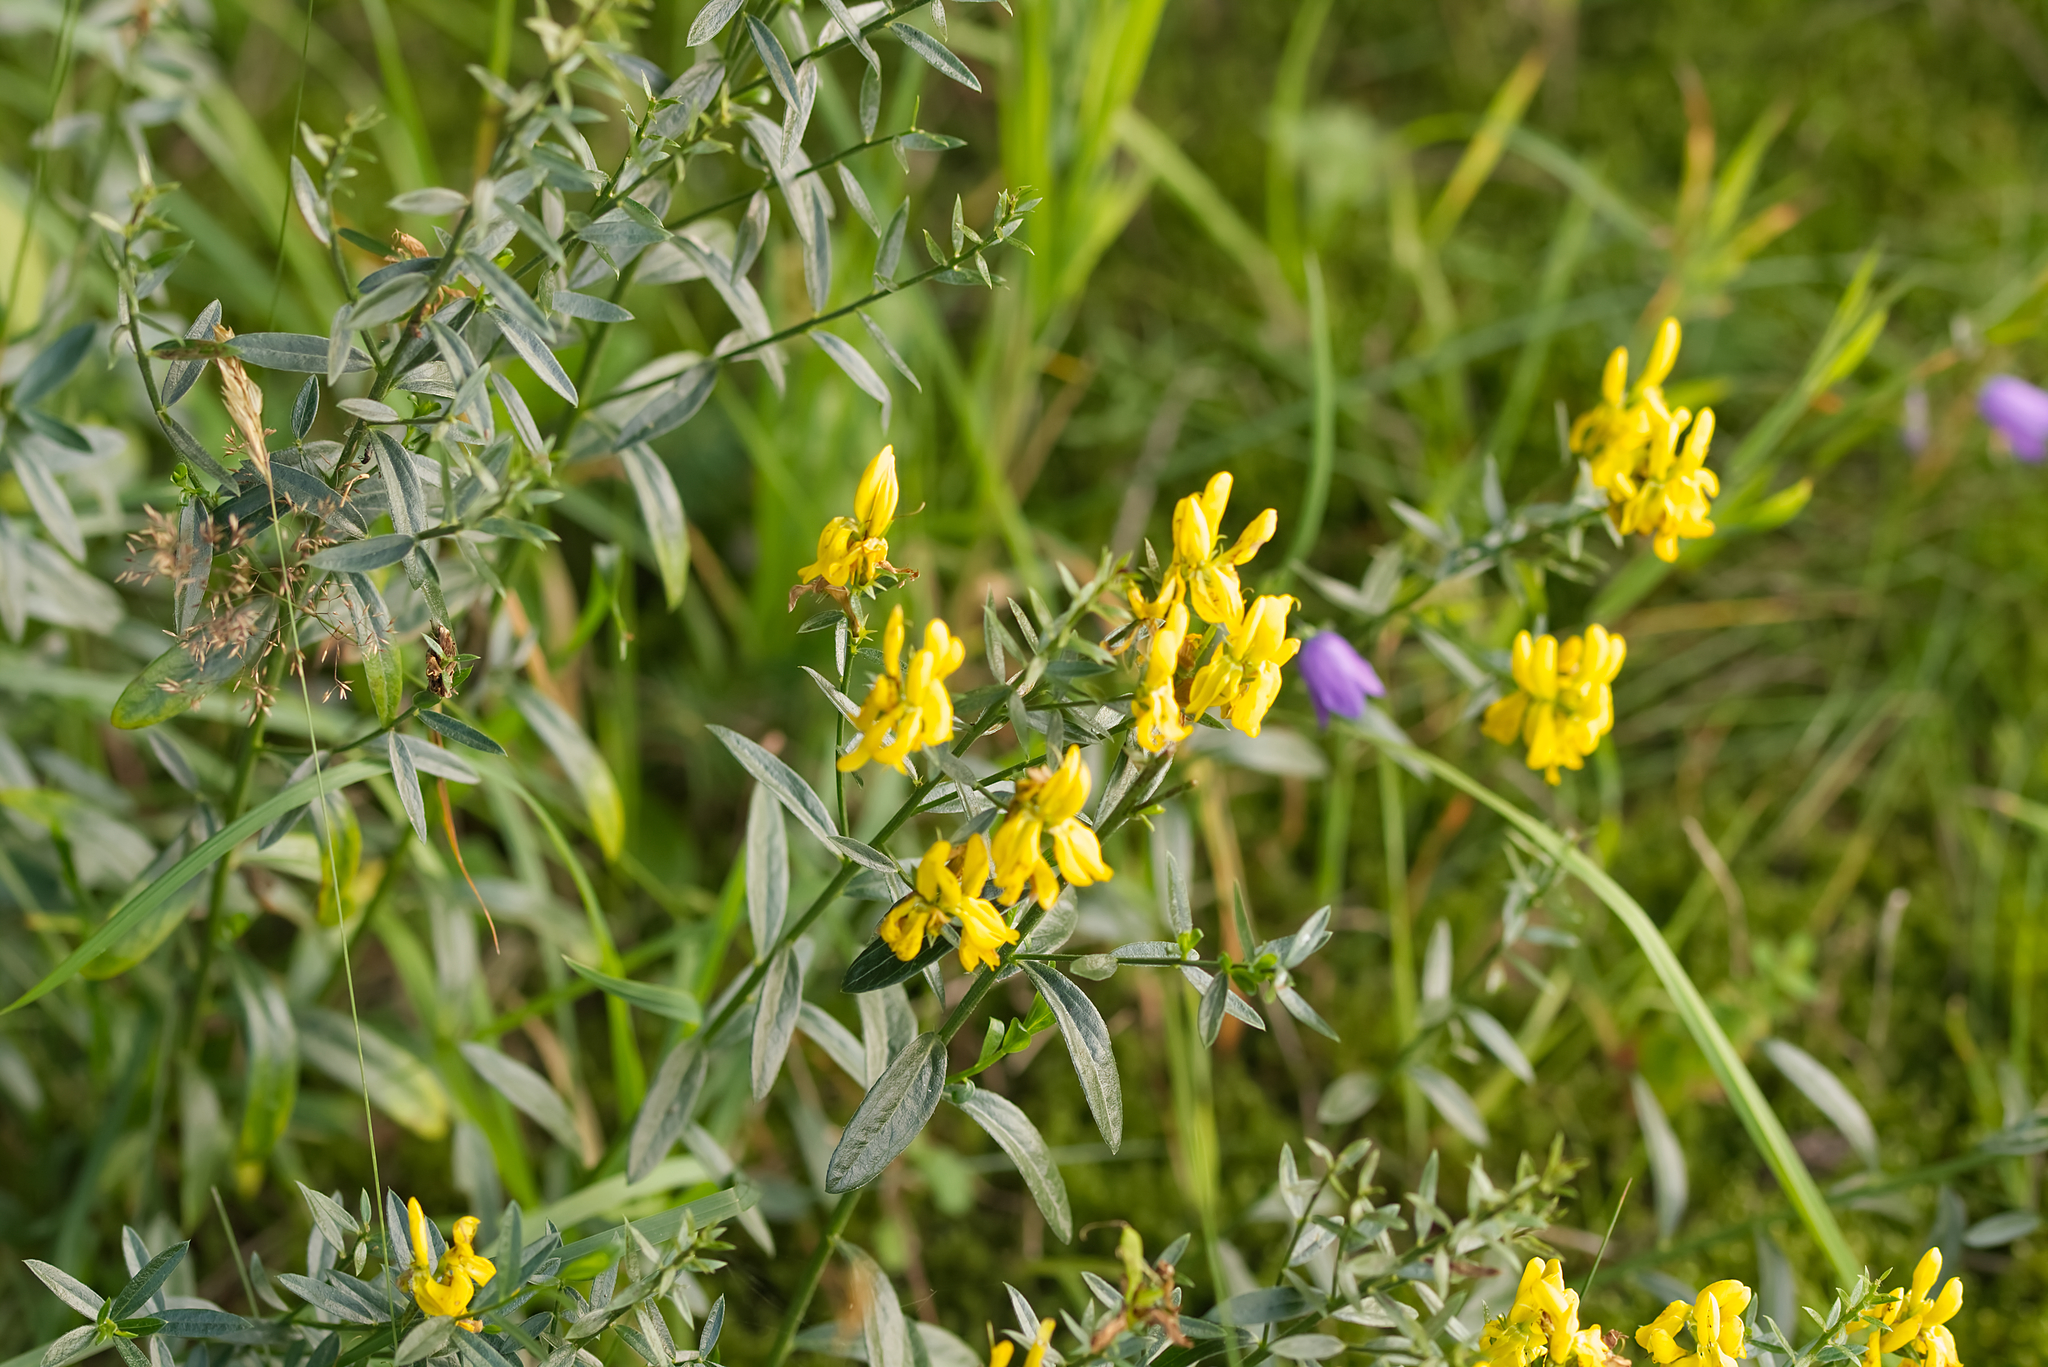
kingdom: Plantae
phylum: Tracheophyta
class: Magnoliopsida
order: Fabales
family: Fabaceae
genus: Genista
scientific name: Genista tinctoria
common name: Dyer's greenweed
